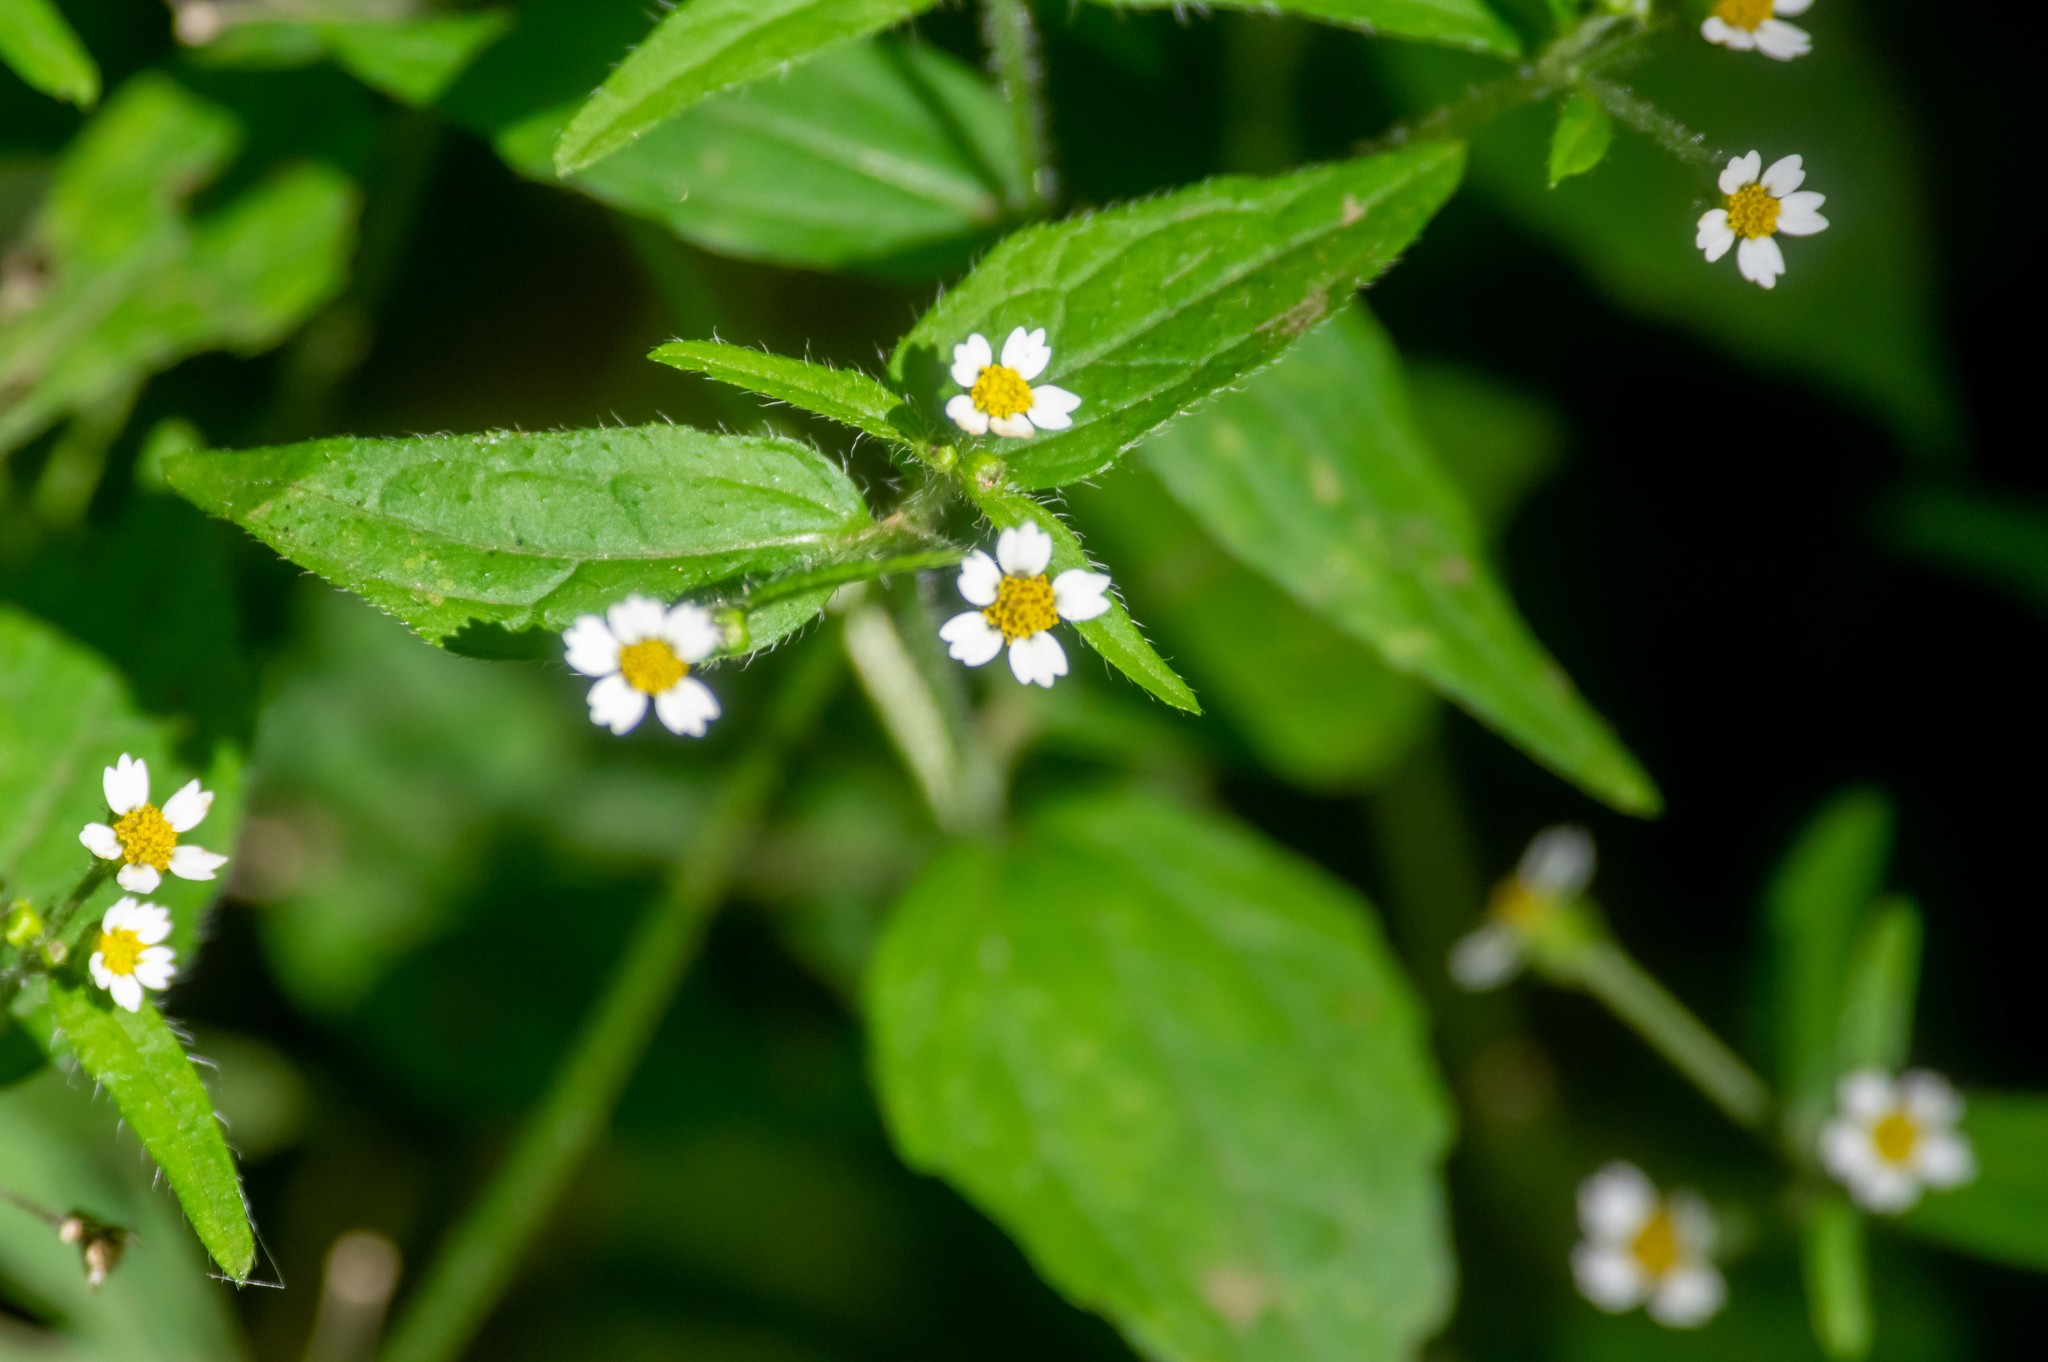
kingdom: Plantae
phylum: Tracheophyta
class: Magnoliopsida
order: Asterales
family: Asteraceae
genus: Galinsoga
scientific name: Galinsoga quadriradiata
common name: Shaggy soldier
